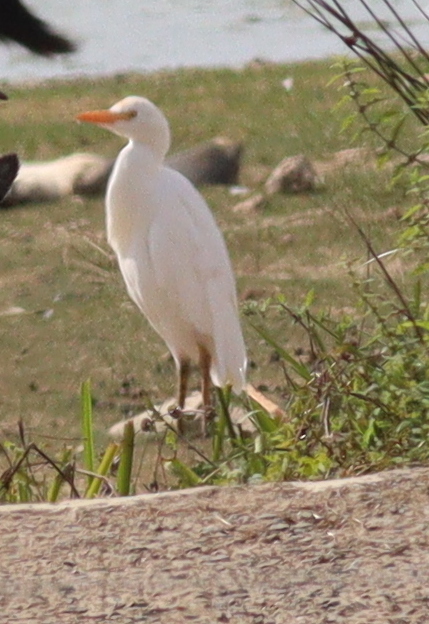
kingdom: Animalia
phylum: Chordata
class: Aves
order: Pelecaniformes
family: Ardeidae
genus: Bubulcus
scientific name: Bubulcus ibis
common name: Cattle egret
